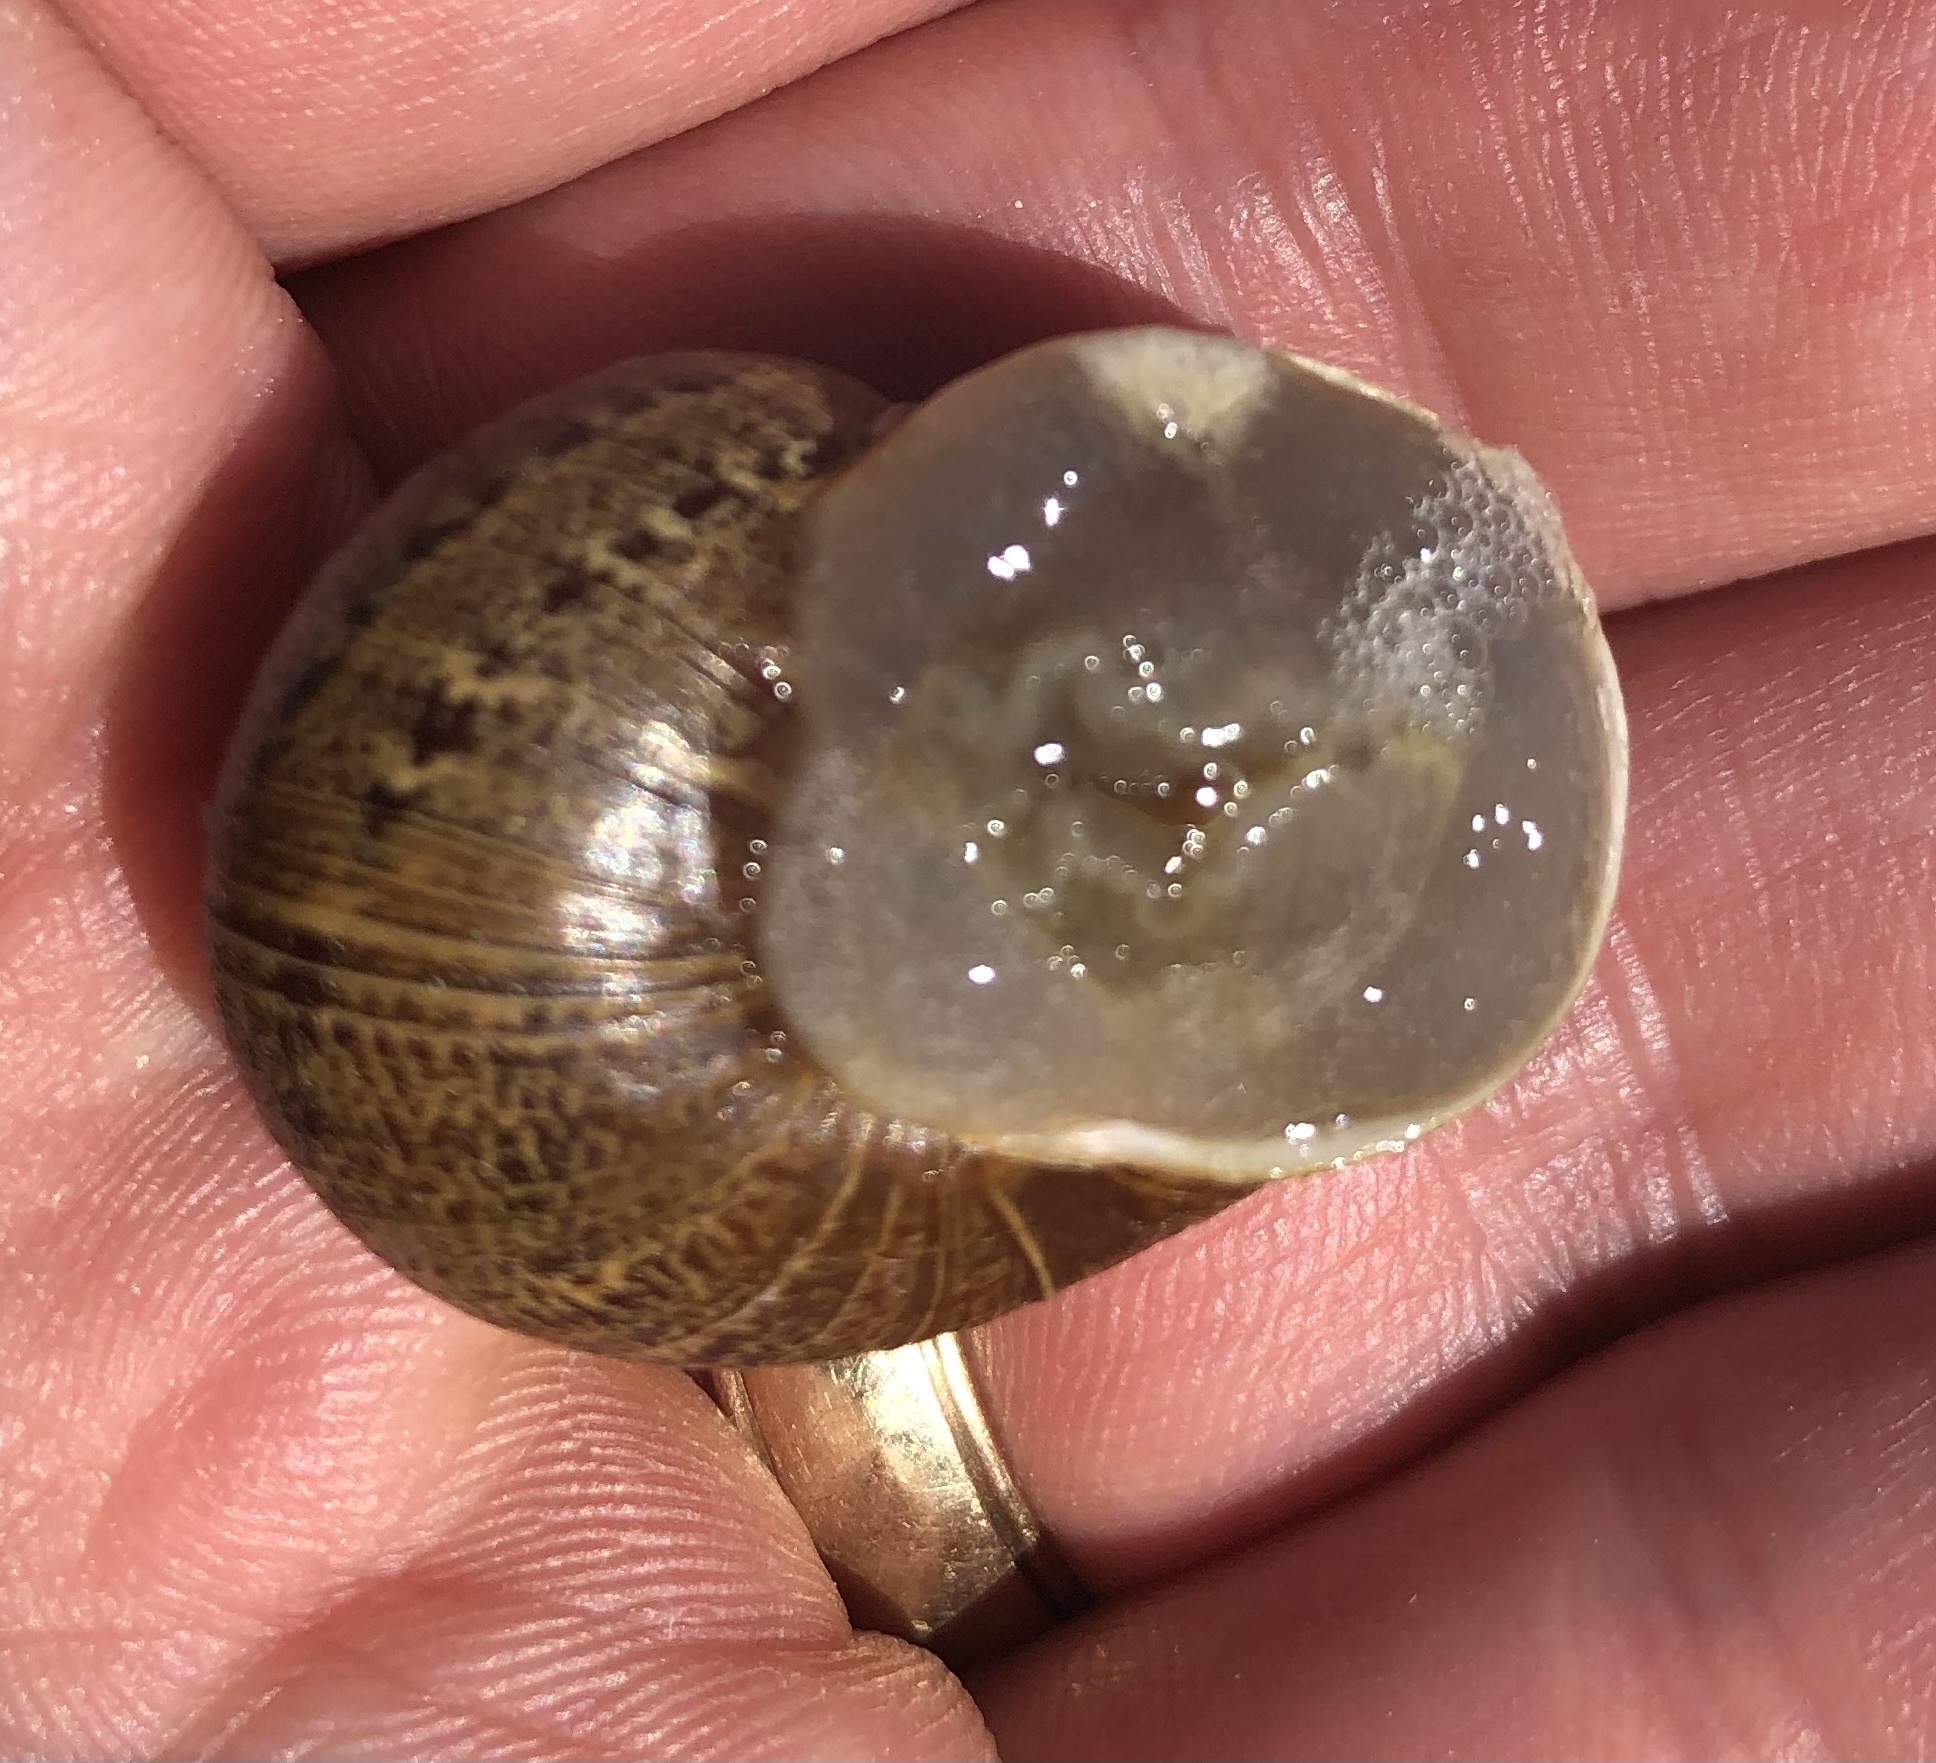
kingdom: Animalia
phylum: Mollusca
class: Gastropoda
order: Stylommatophora
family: Helicidae
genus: Cornu
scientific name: Cornu aspersum
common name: Brown garden snail
